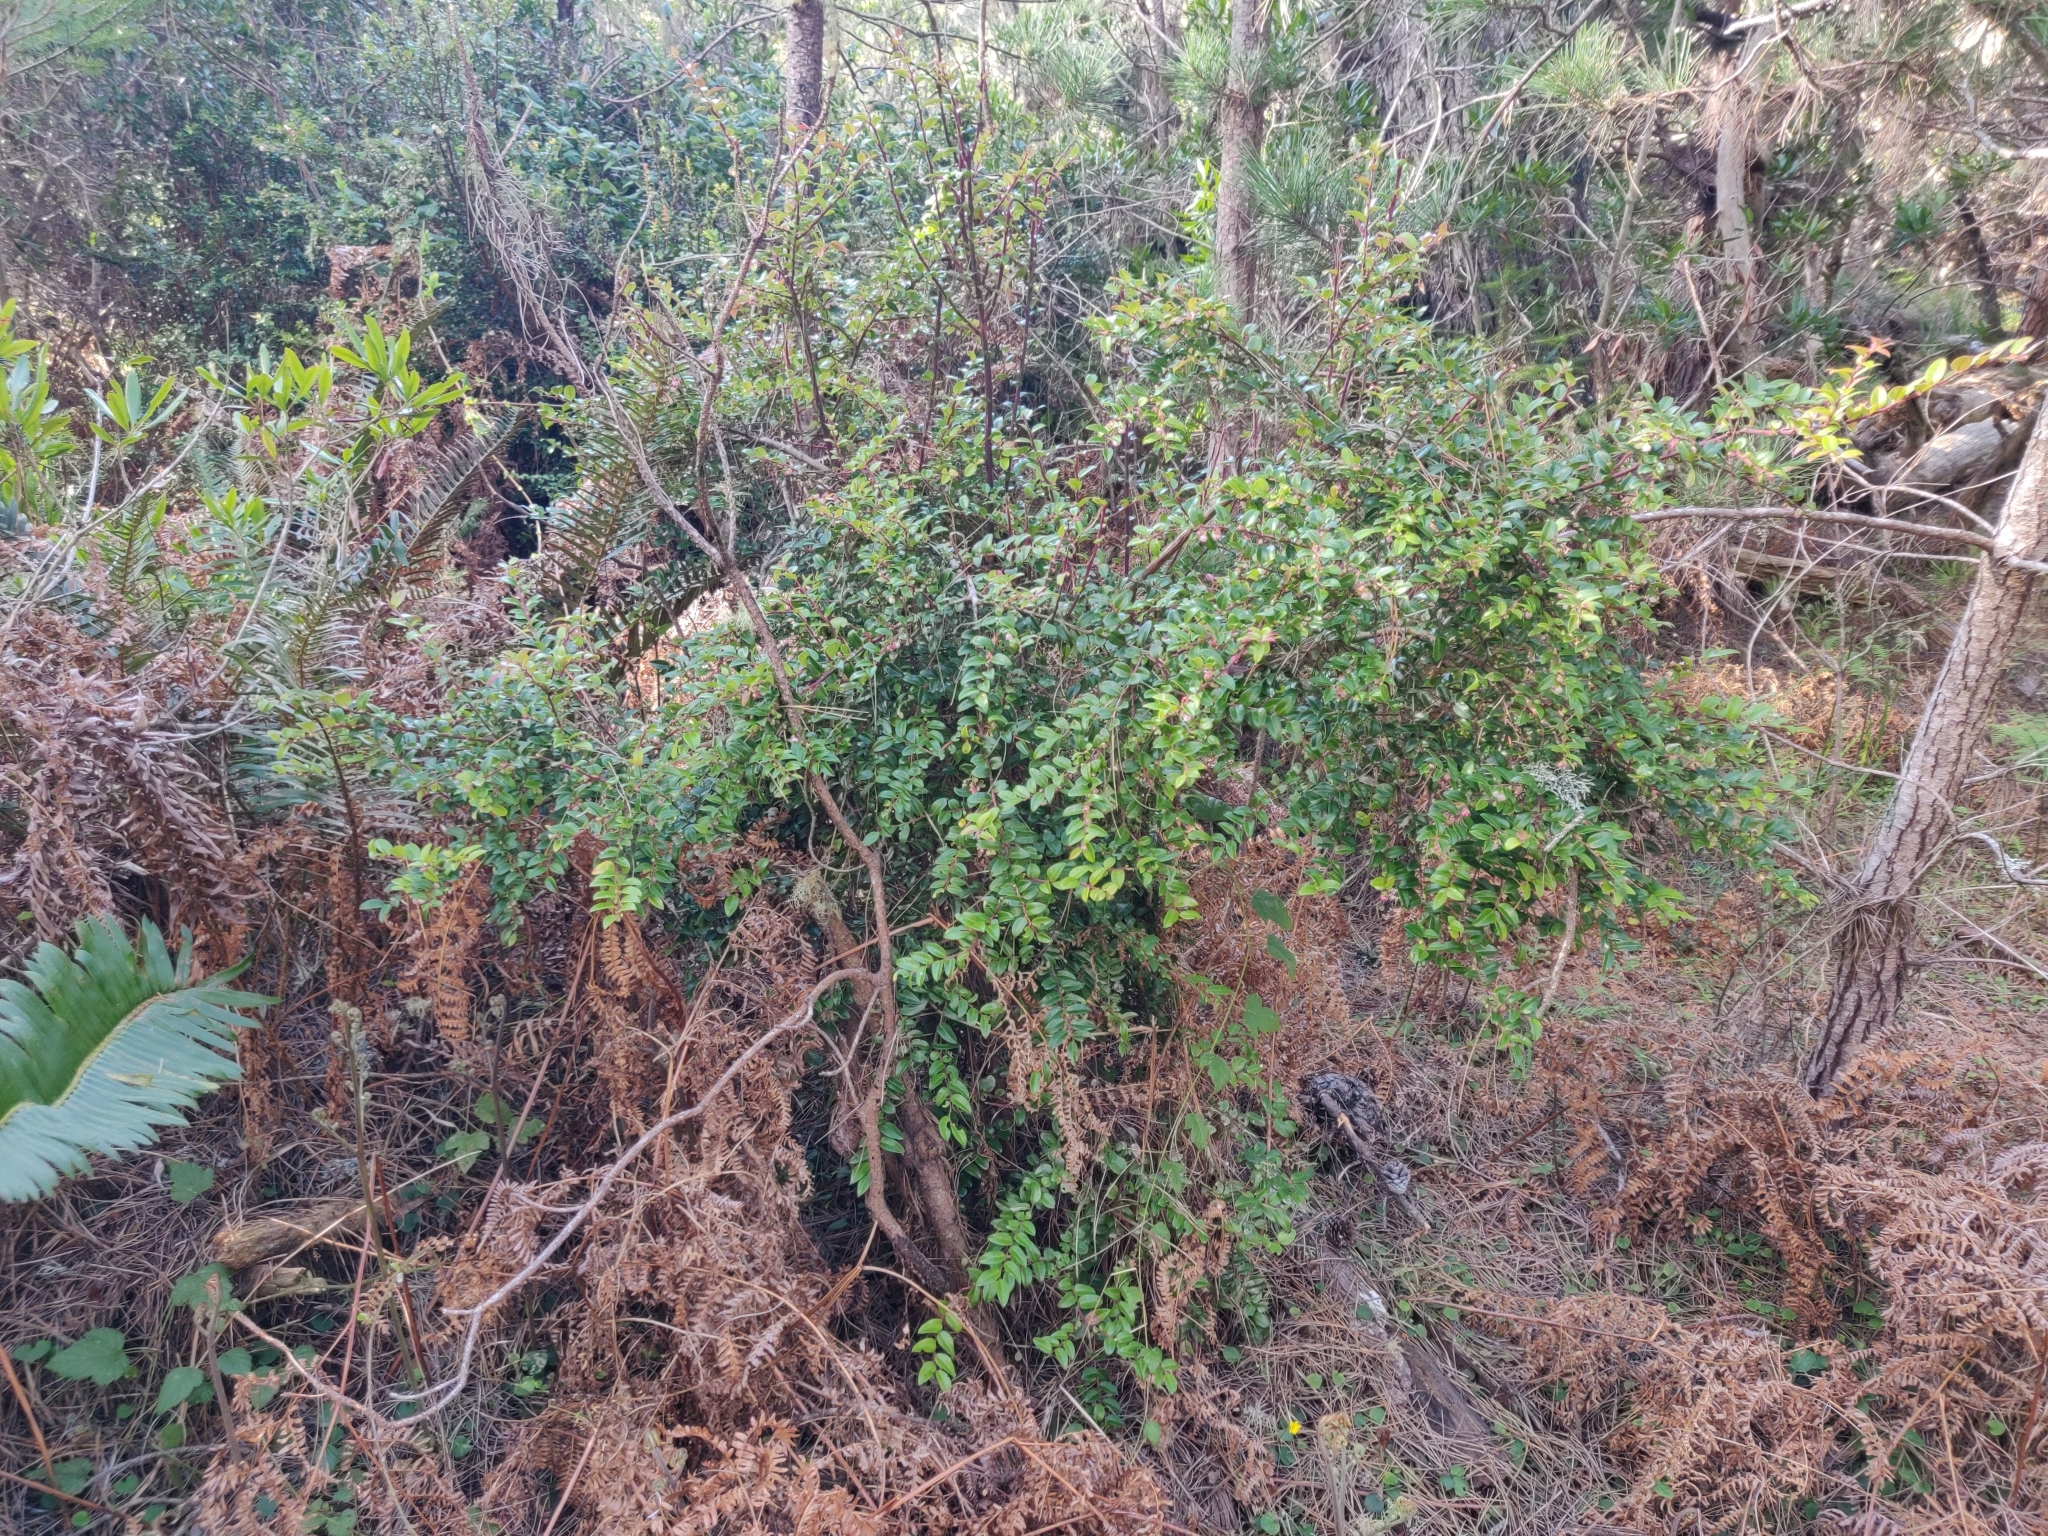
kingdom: Plantae
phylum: Tracheophyta
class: Magnoliopsida
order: Ericales
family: Ericaceae
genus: Vaccinium
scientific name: Vaccinium ovatum
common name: California-huckleberry
